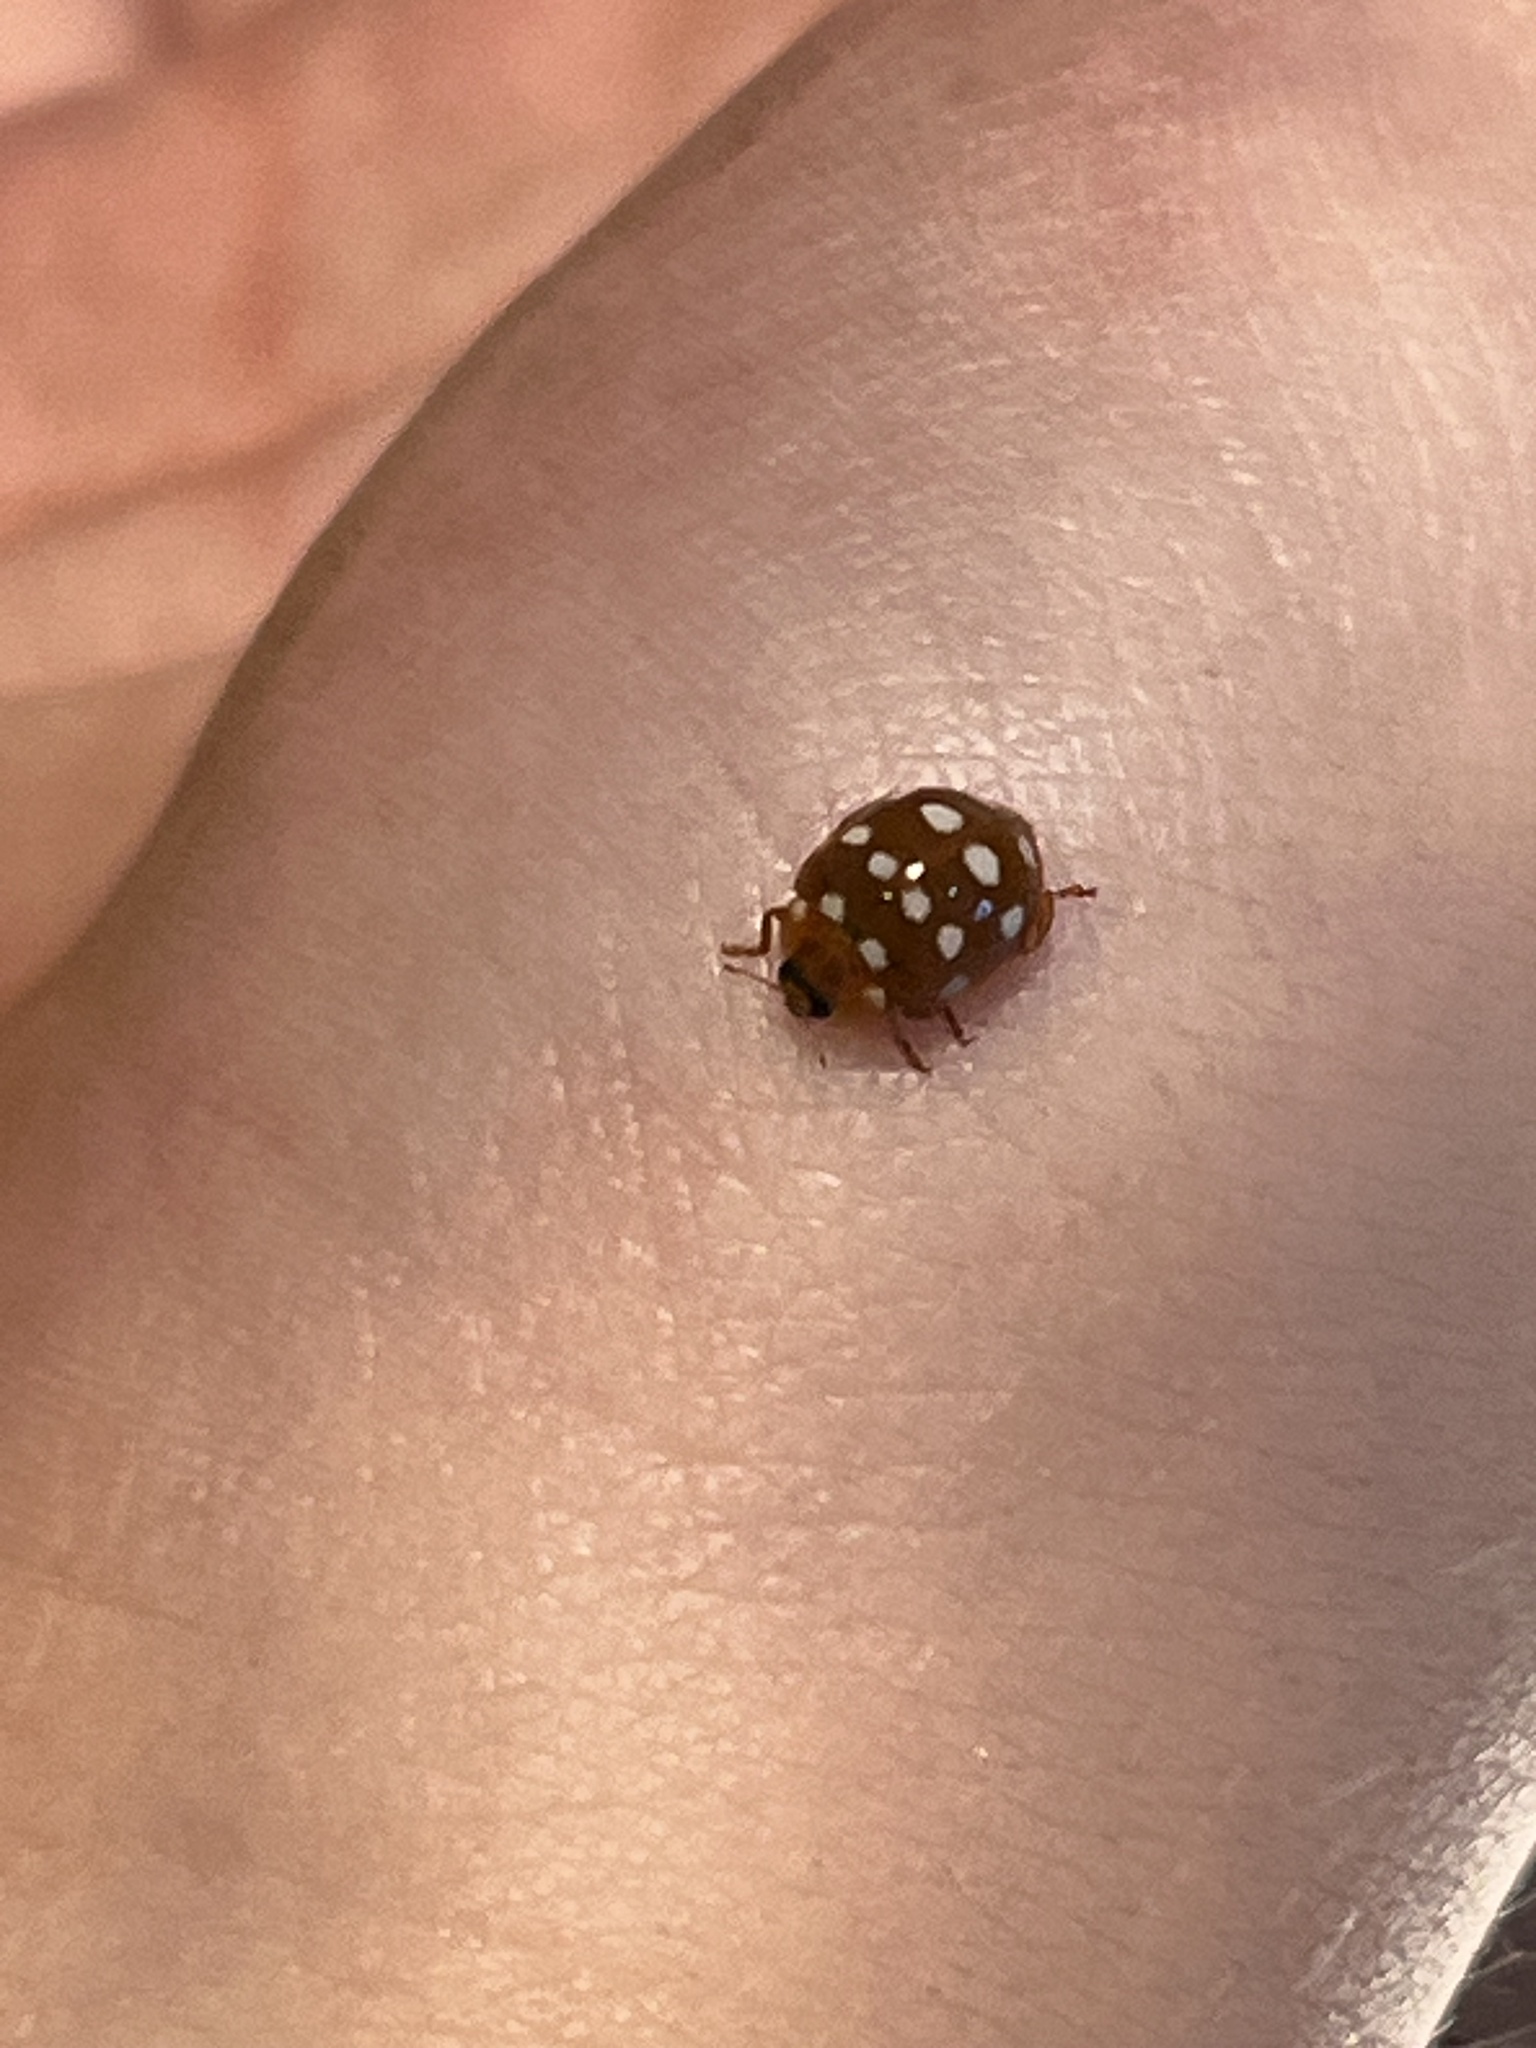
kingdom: Animalia
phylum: Arthropoda
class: Insecta
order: Coleoptera
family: Coccinellidae
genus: Calvia
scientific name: Calvia quatuordecimguttata
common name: Cream-spot ladybird
